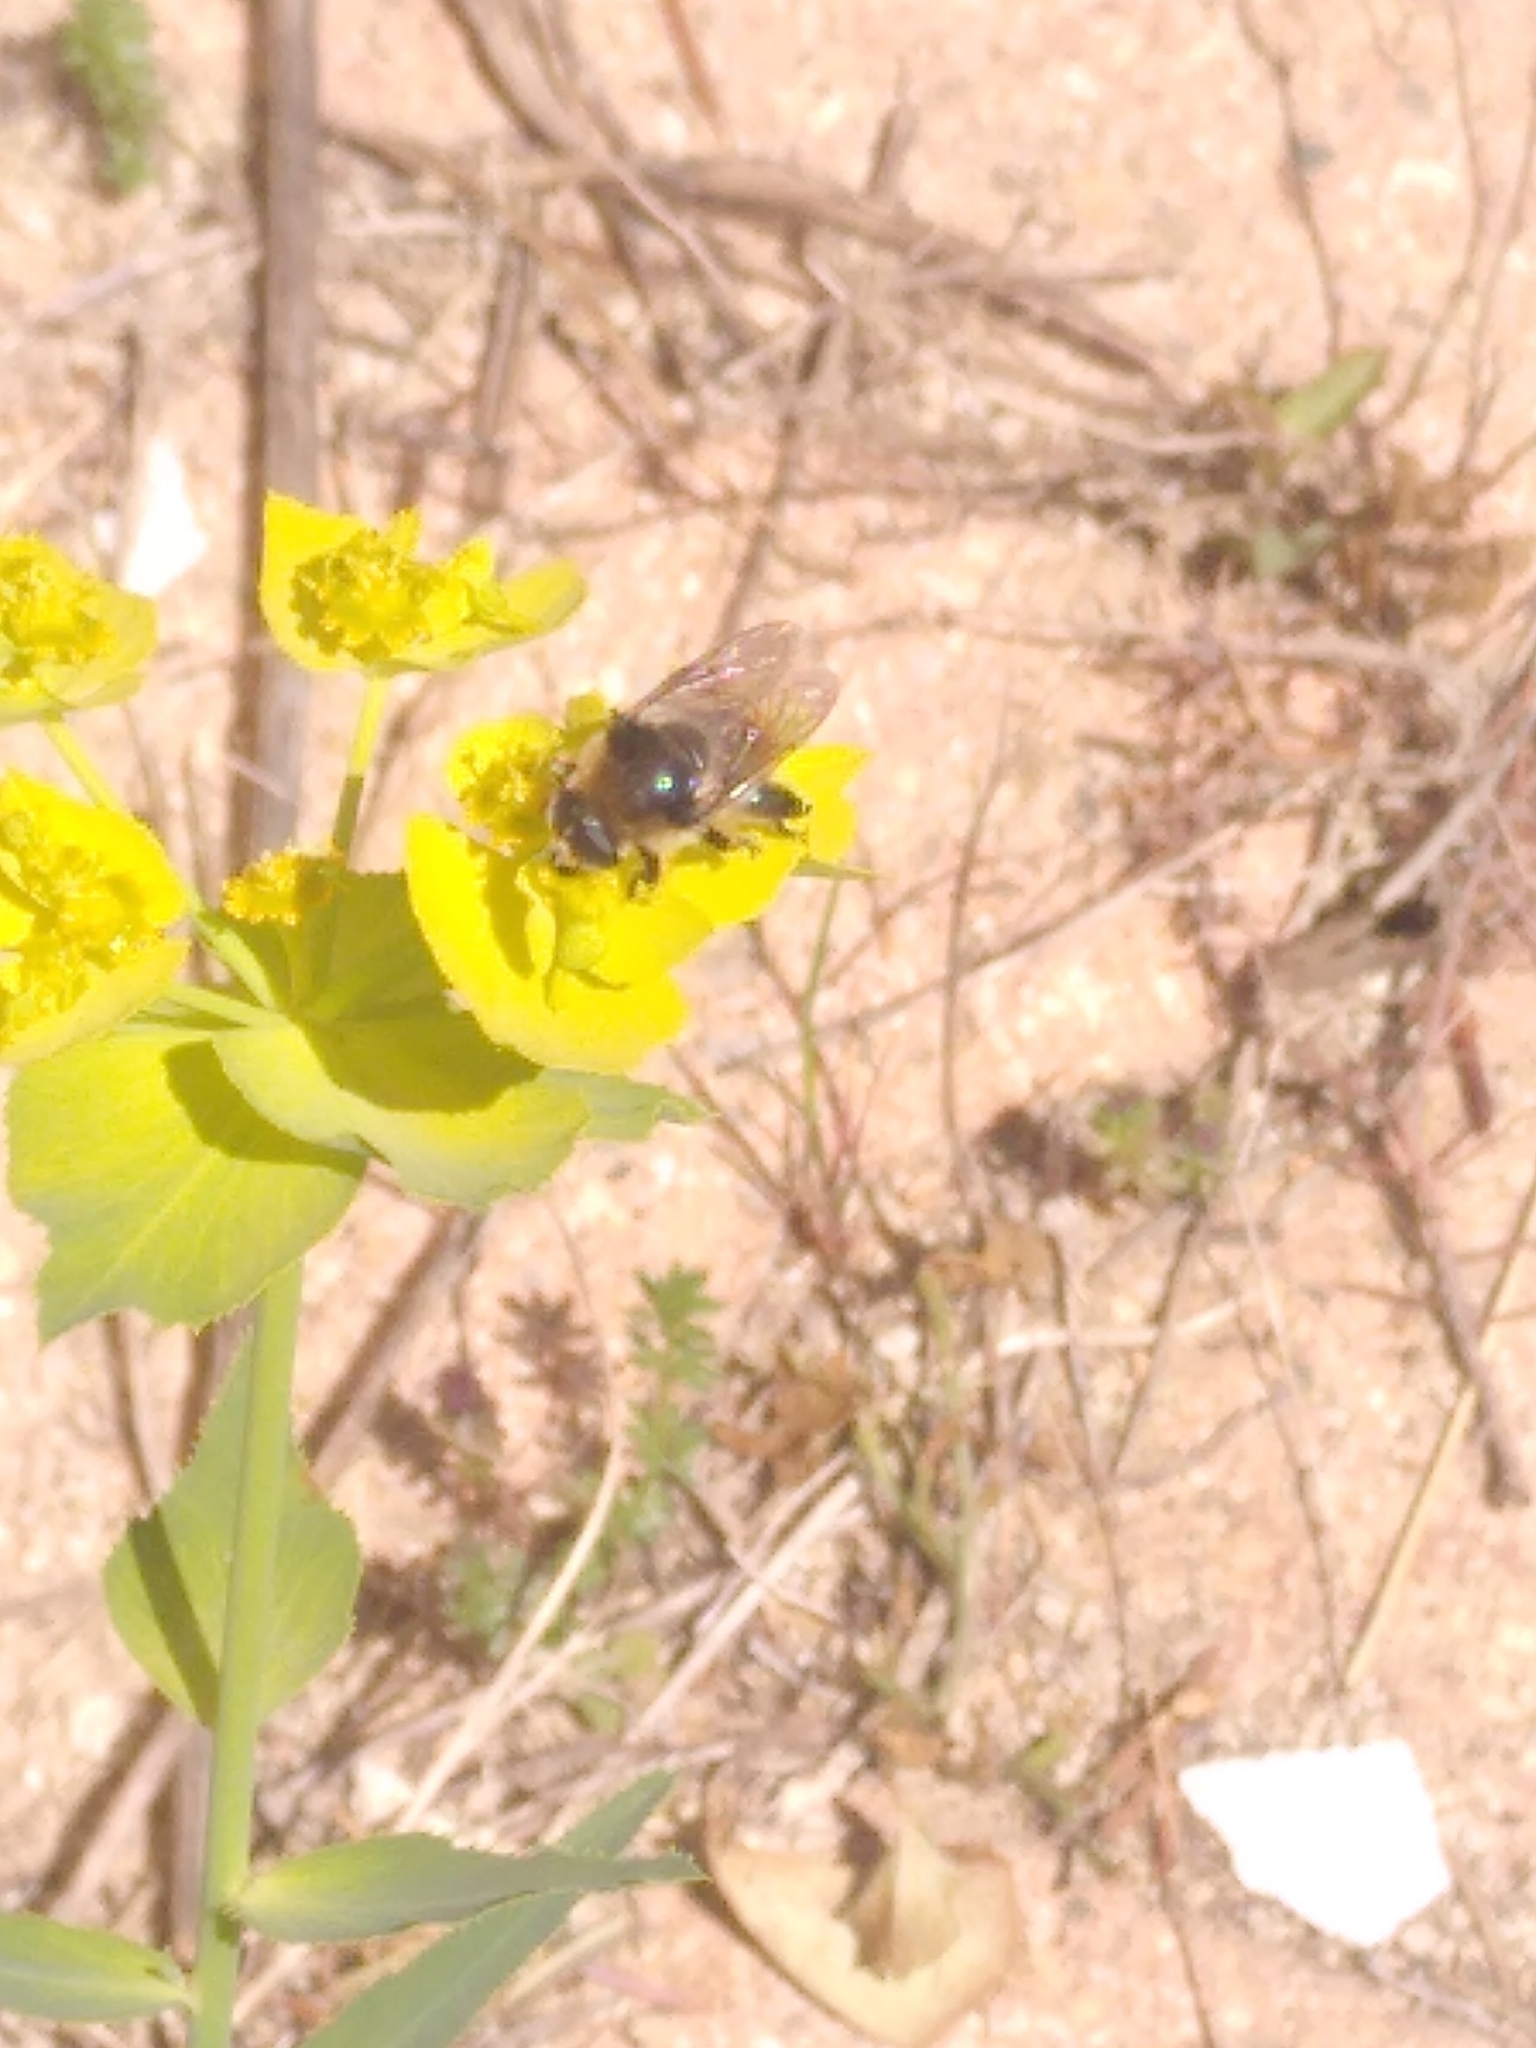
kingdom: Animalia
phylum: Arthropoda
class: Insecta
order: Diptera
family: Syrphidae
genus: Merodon
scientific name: Merodon clavipes
